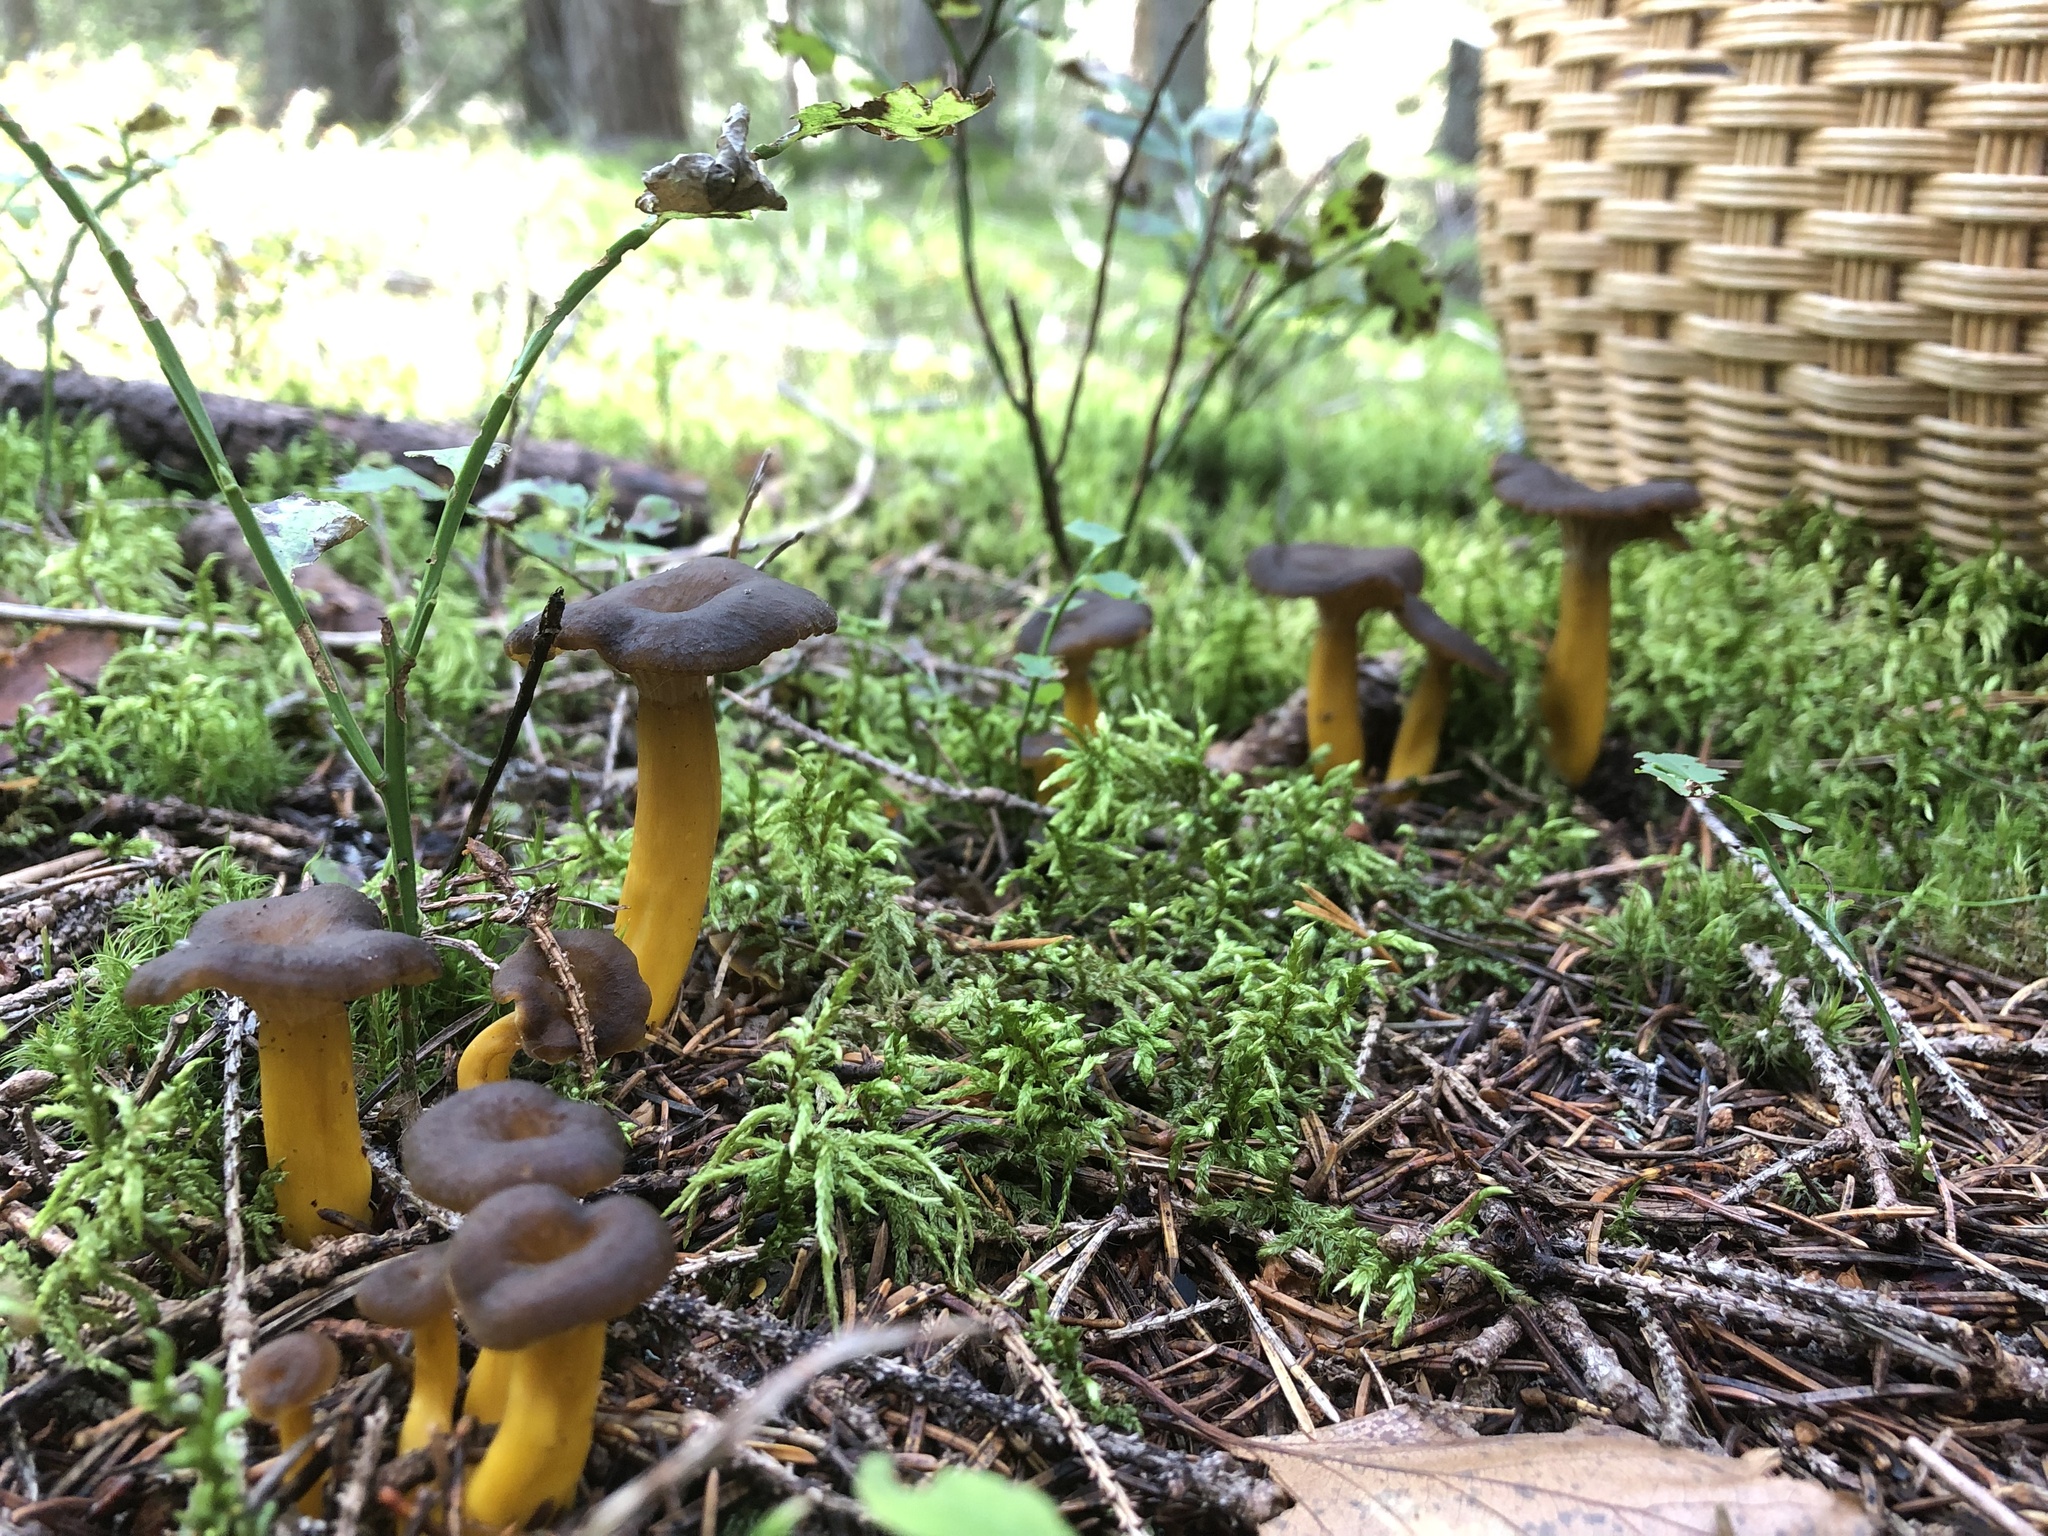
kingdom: Fungi
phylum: Basidiomycota
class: Agaricomycetes
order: Cantharellales
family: Hydnaceae
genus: Craterellus
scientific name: Craterellus tubaeformis
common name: Yellowfoot
